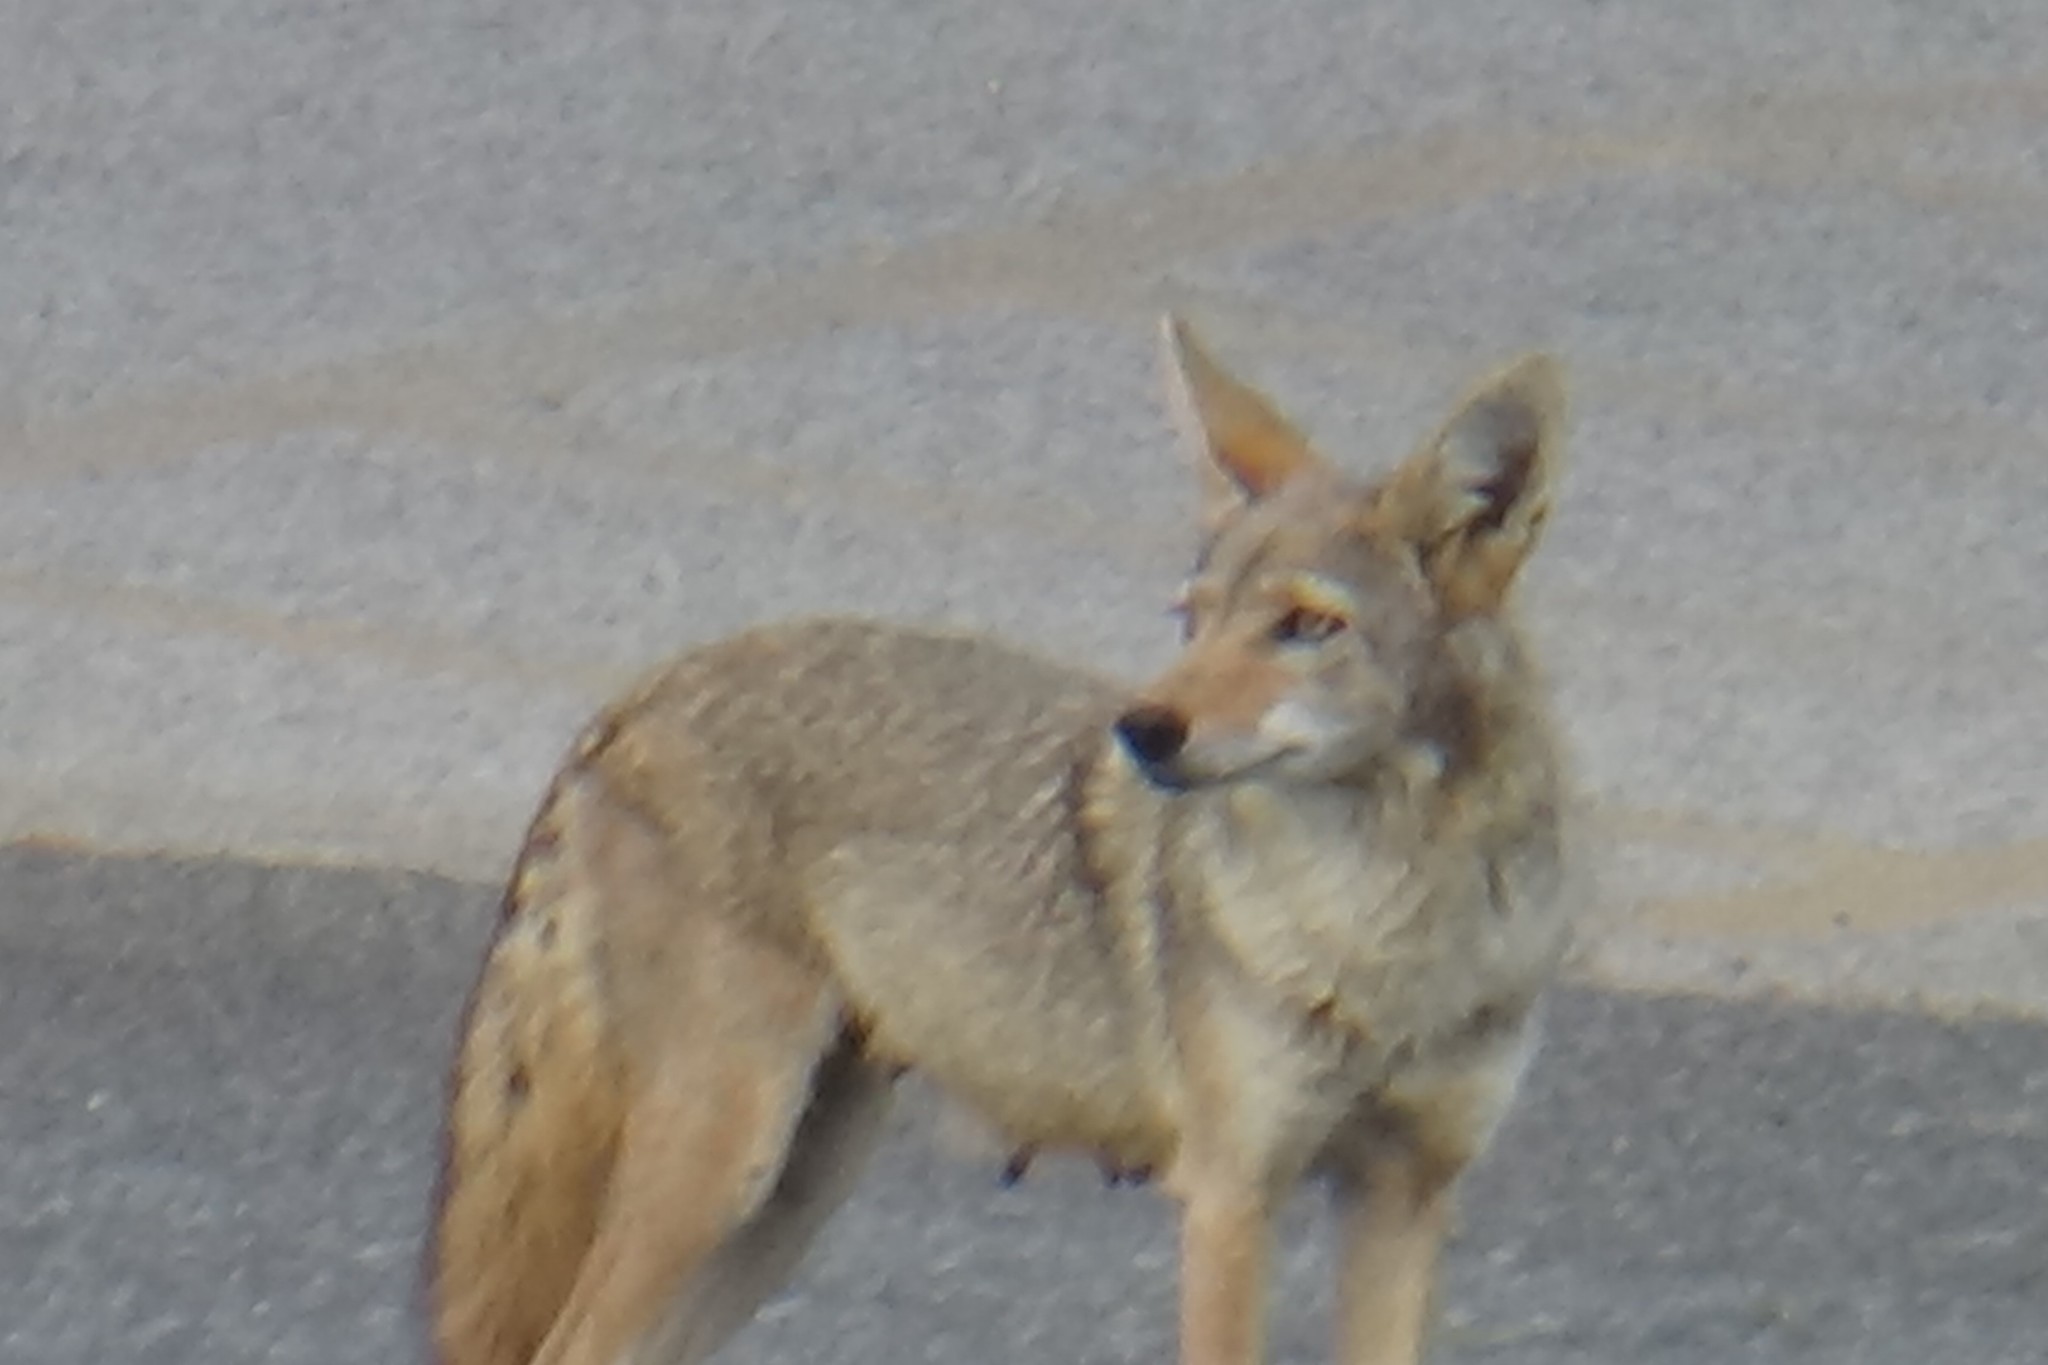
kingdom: Animalia
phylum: Chordata
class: Mammalia
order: Carnivora
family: Canidae
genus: Canis
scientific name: Canis latrans
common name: Coyote
